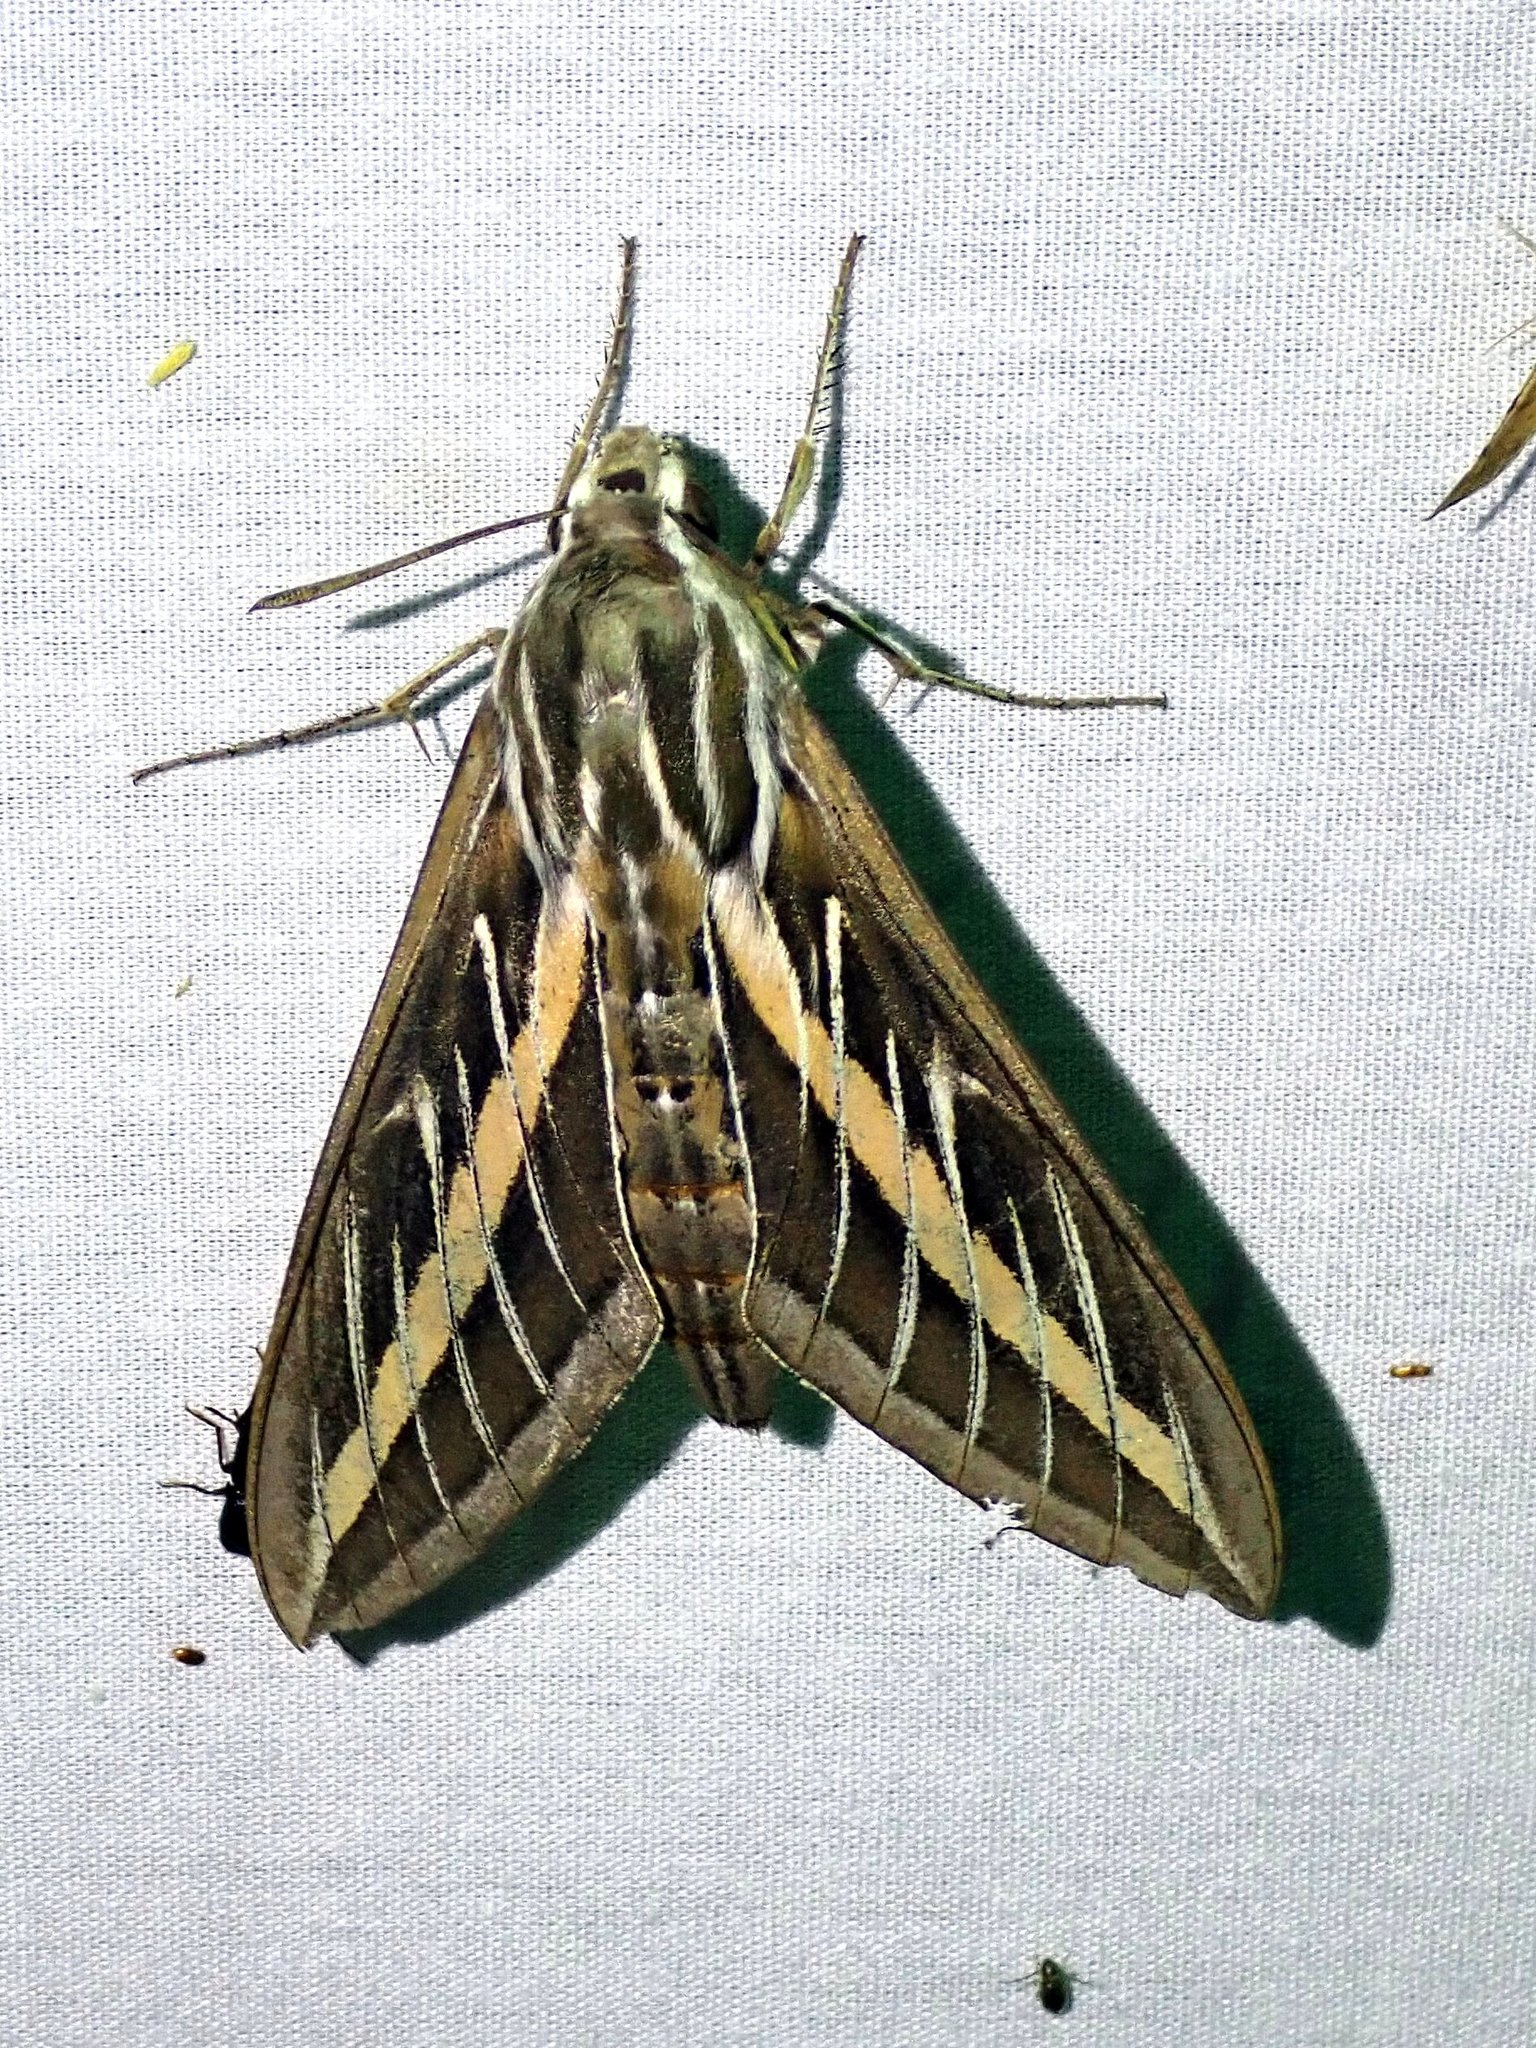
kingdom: Animalia
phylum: Arthropoda
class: Insecta
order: Lepidoptera
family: Sphingidae
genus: Hyles
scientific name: Hyles lineata
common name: White-lined sphinx
